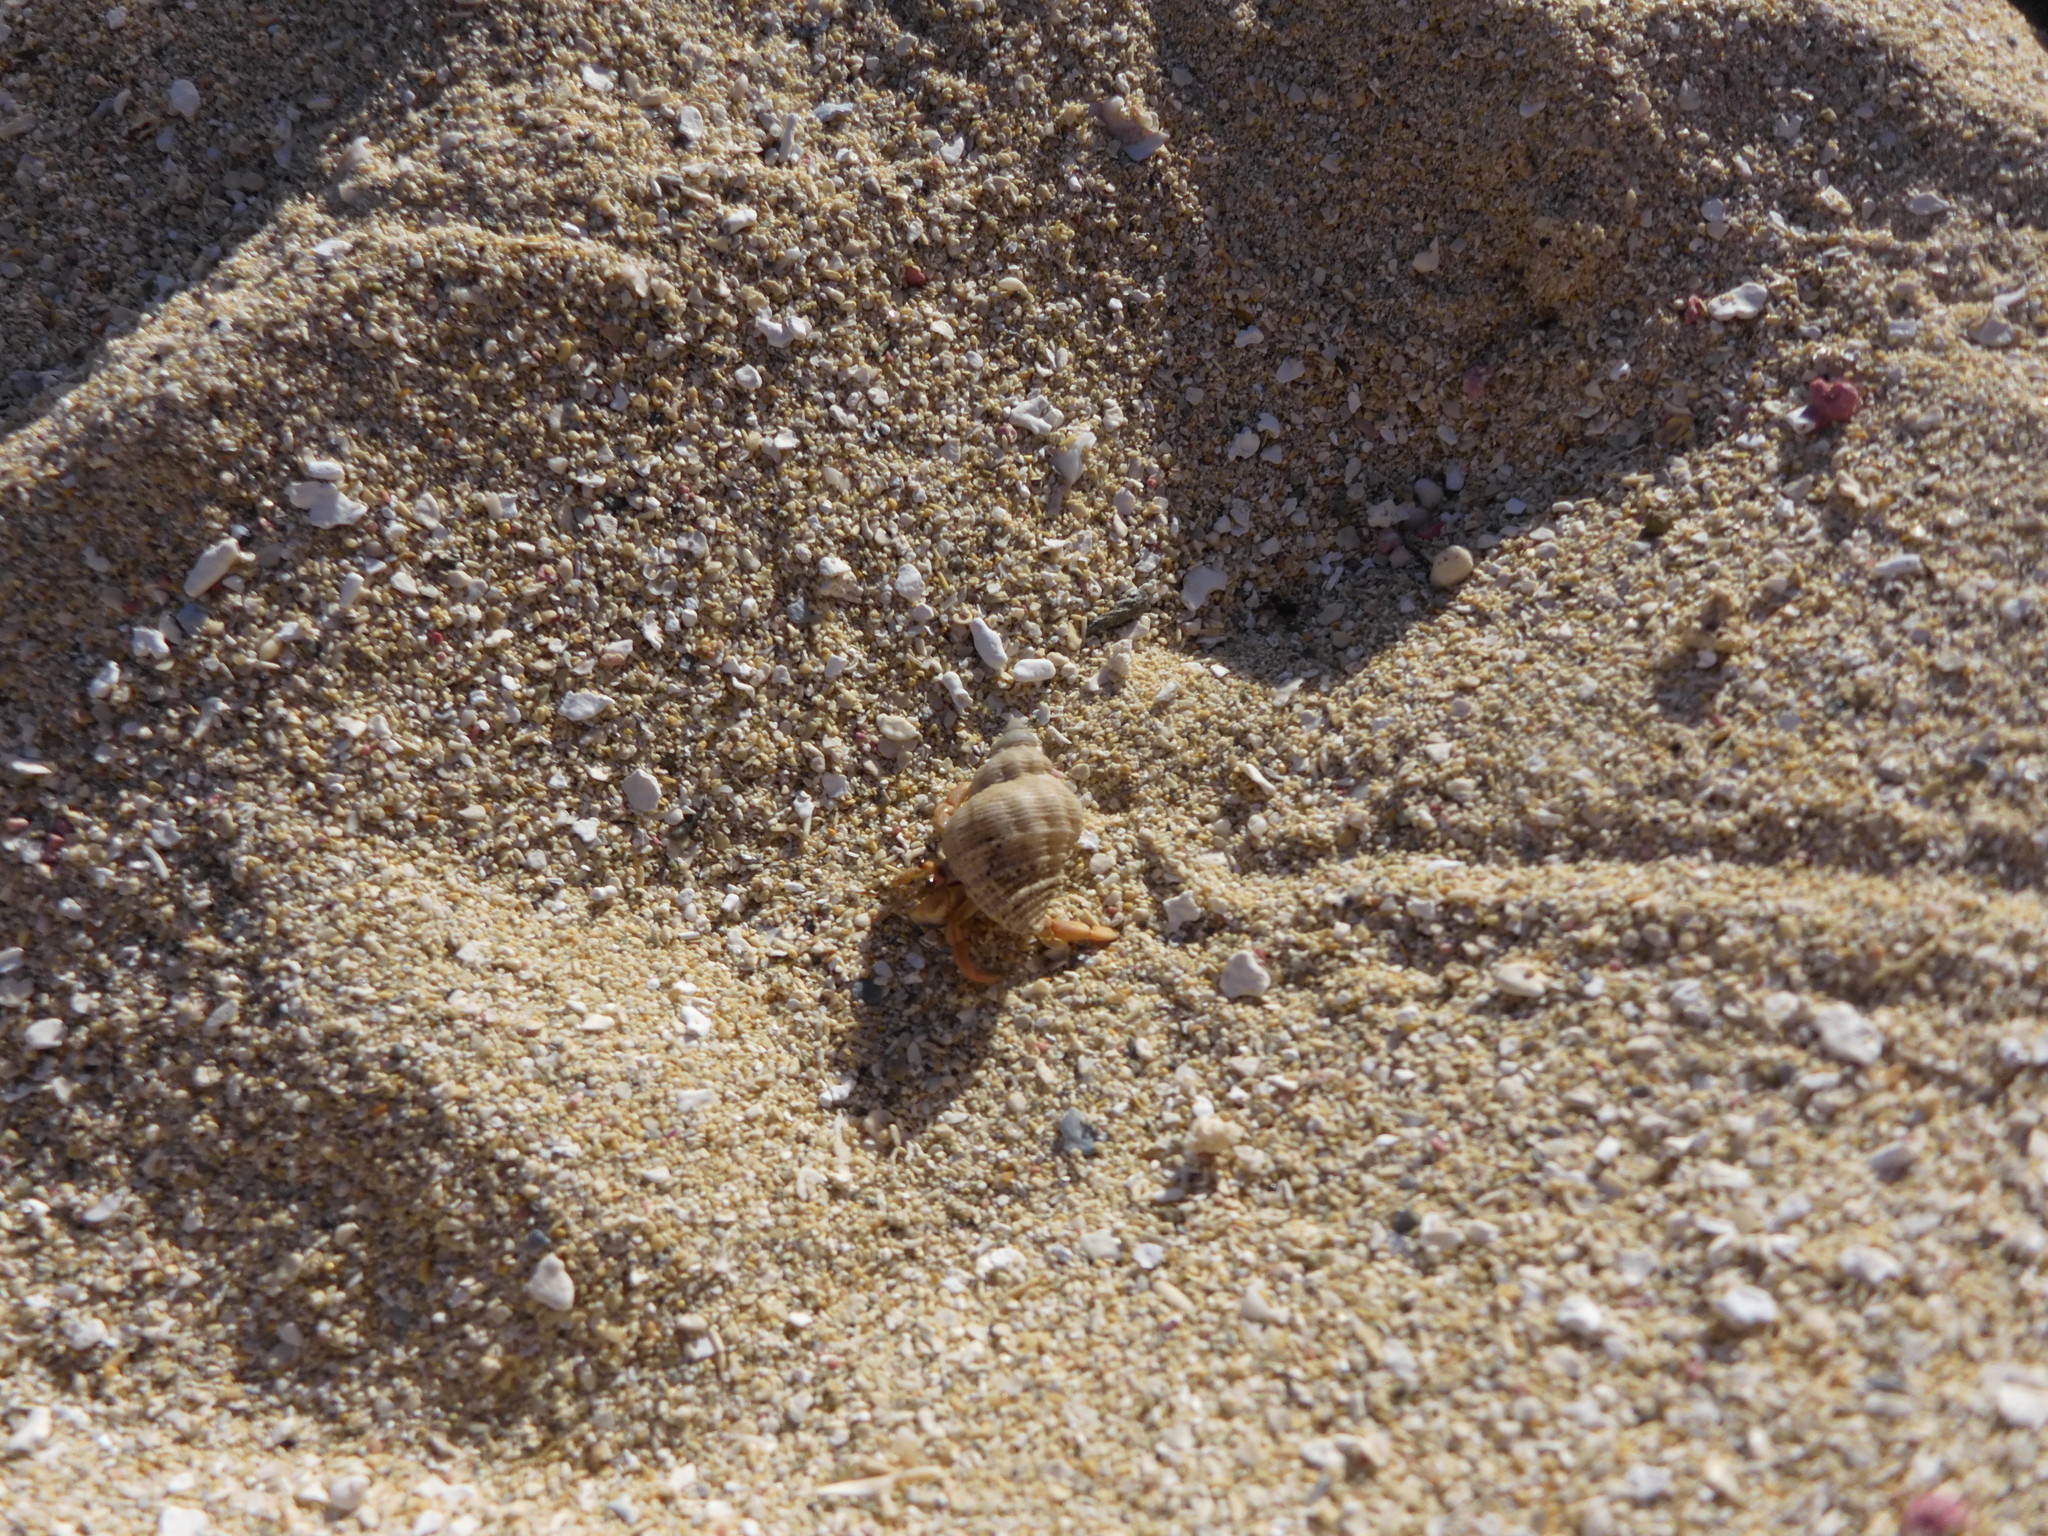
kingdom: Animalia
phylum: Arthropoda
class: Malacostraca
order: Decapoda
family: Coenobitidae
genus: Coenobita
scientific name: Coenobita clypeatus
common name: Caribbean hermit crab
